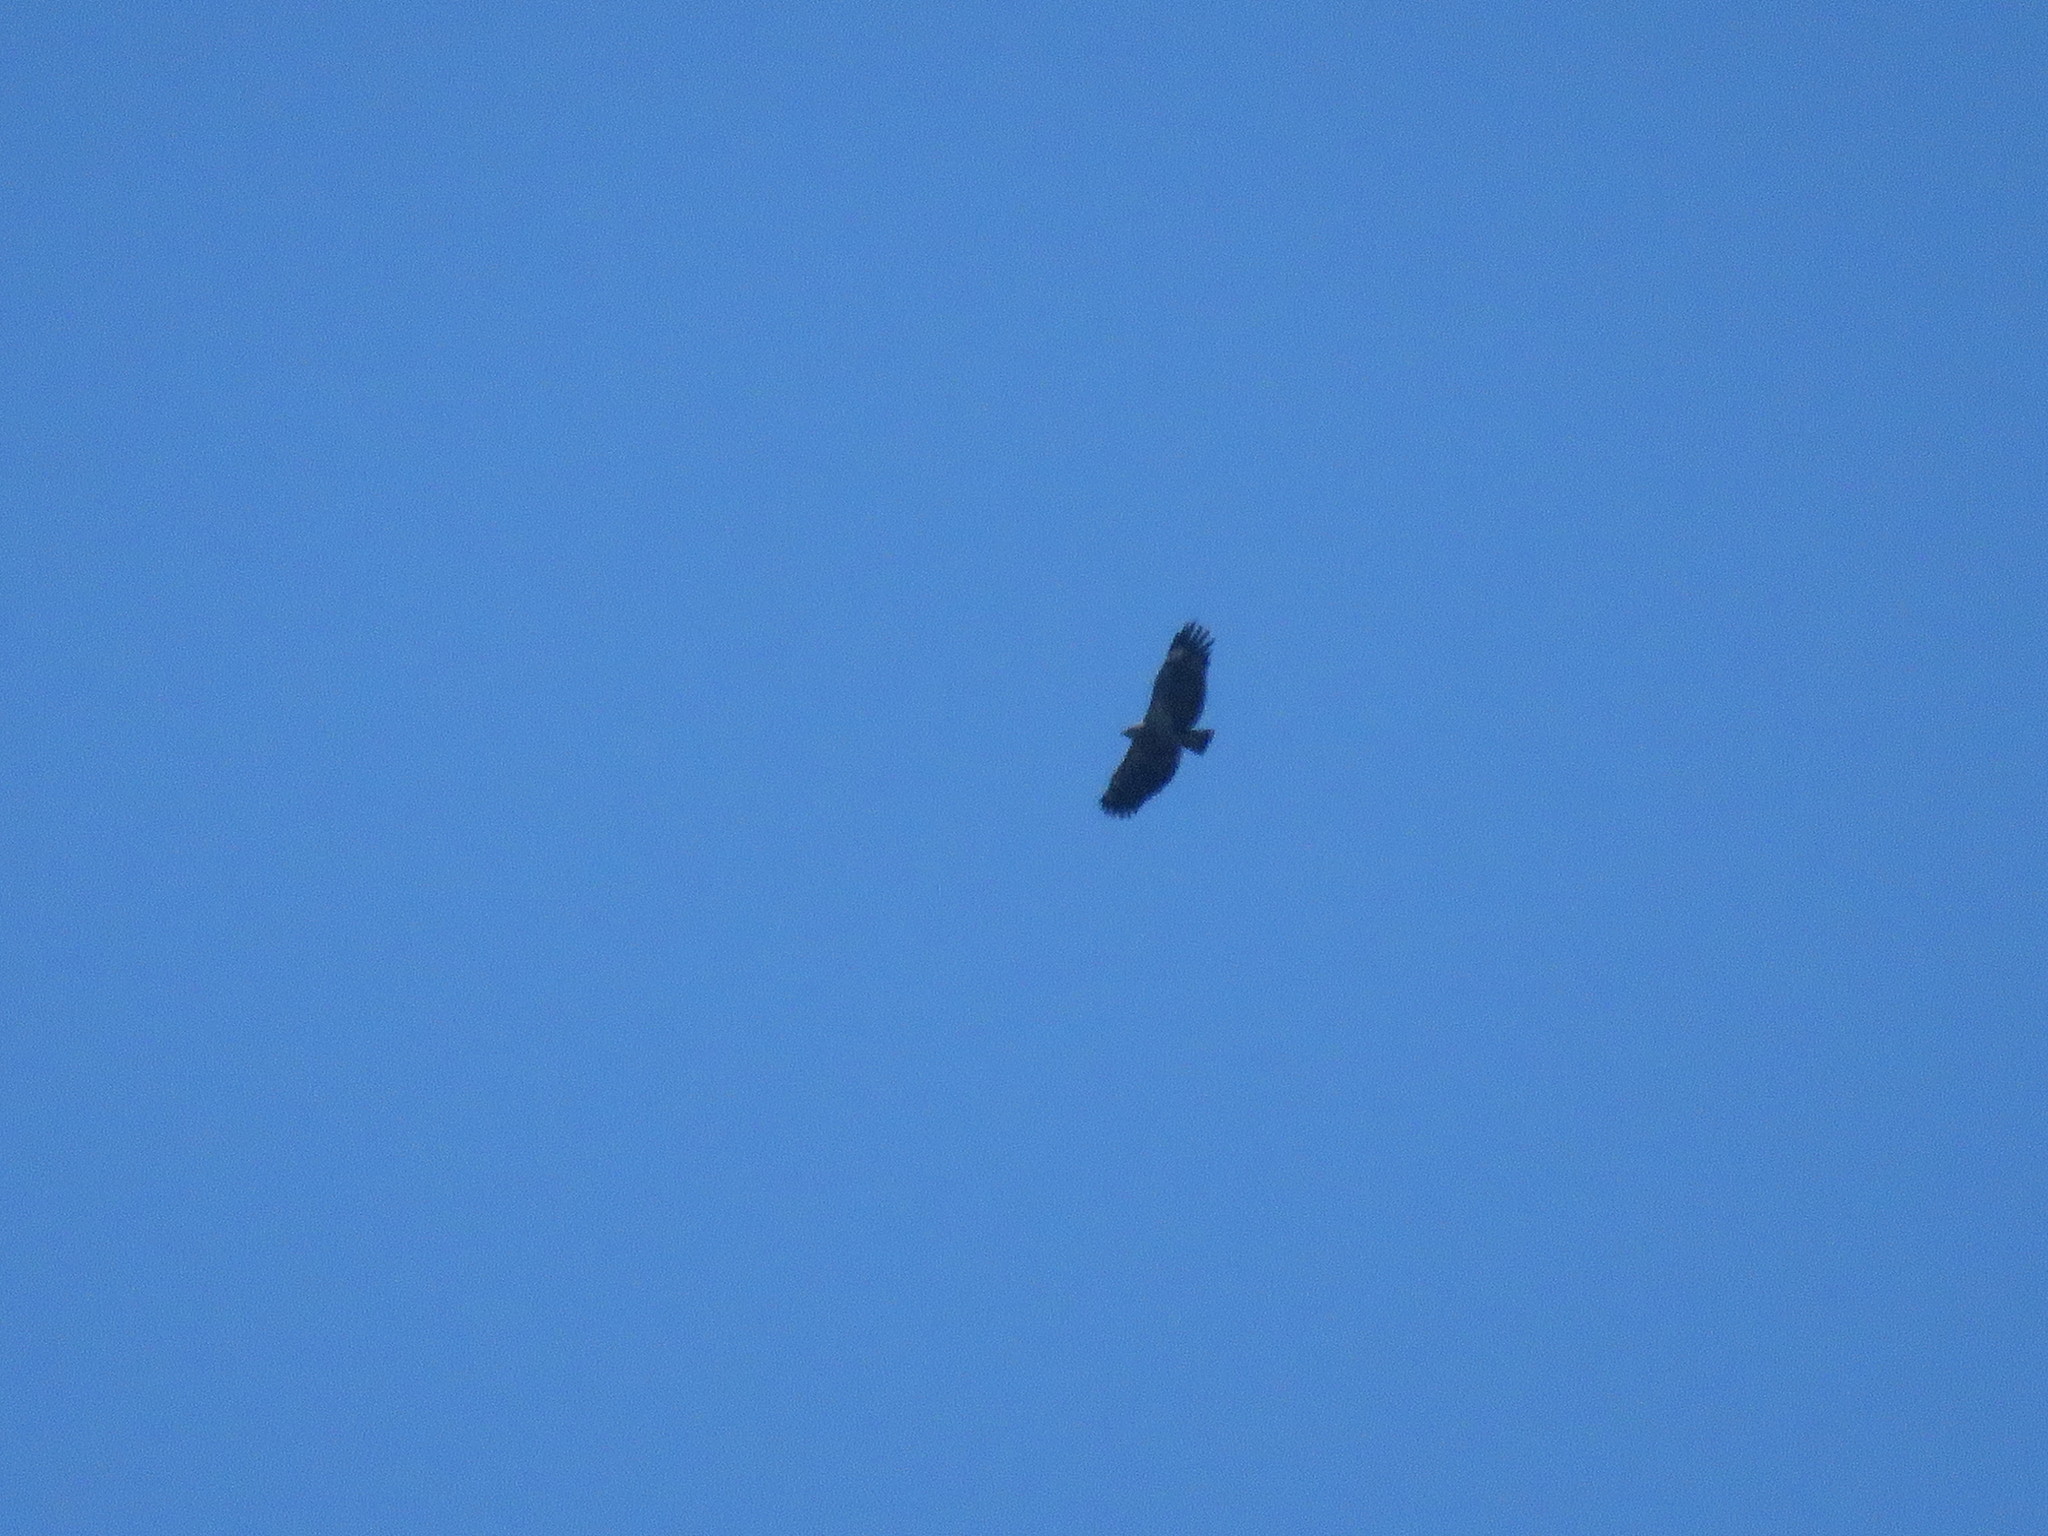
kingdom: Animalia
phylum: Chordata
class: Aves
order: Accipitriformes
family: Accipitridae
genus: Harpyhaliaetus
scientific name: Harpyhaliaetus coronatus
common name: Crowned solitary eagle
